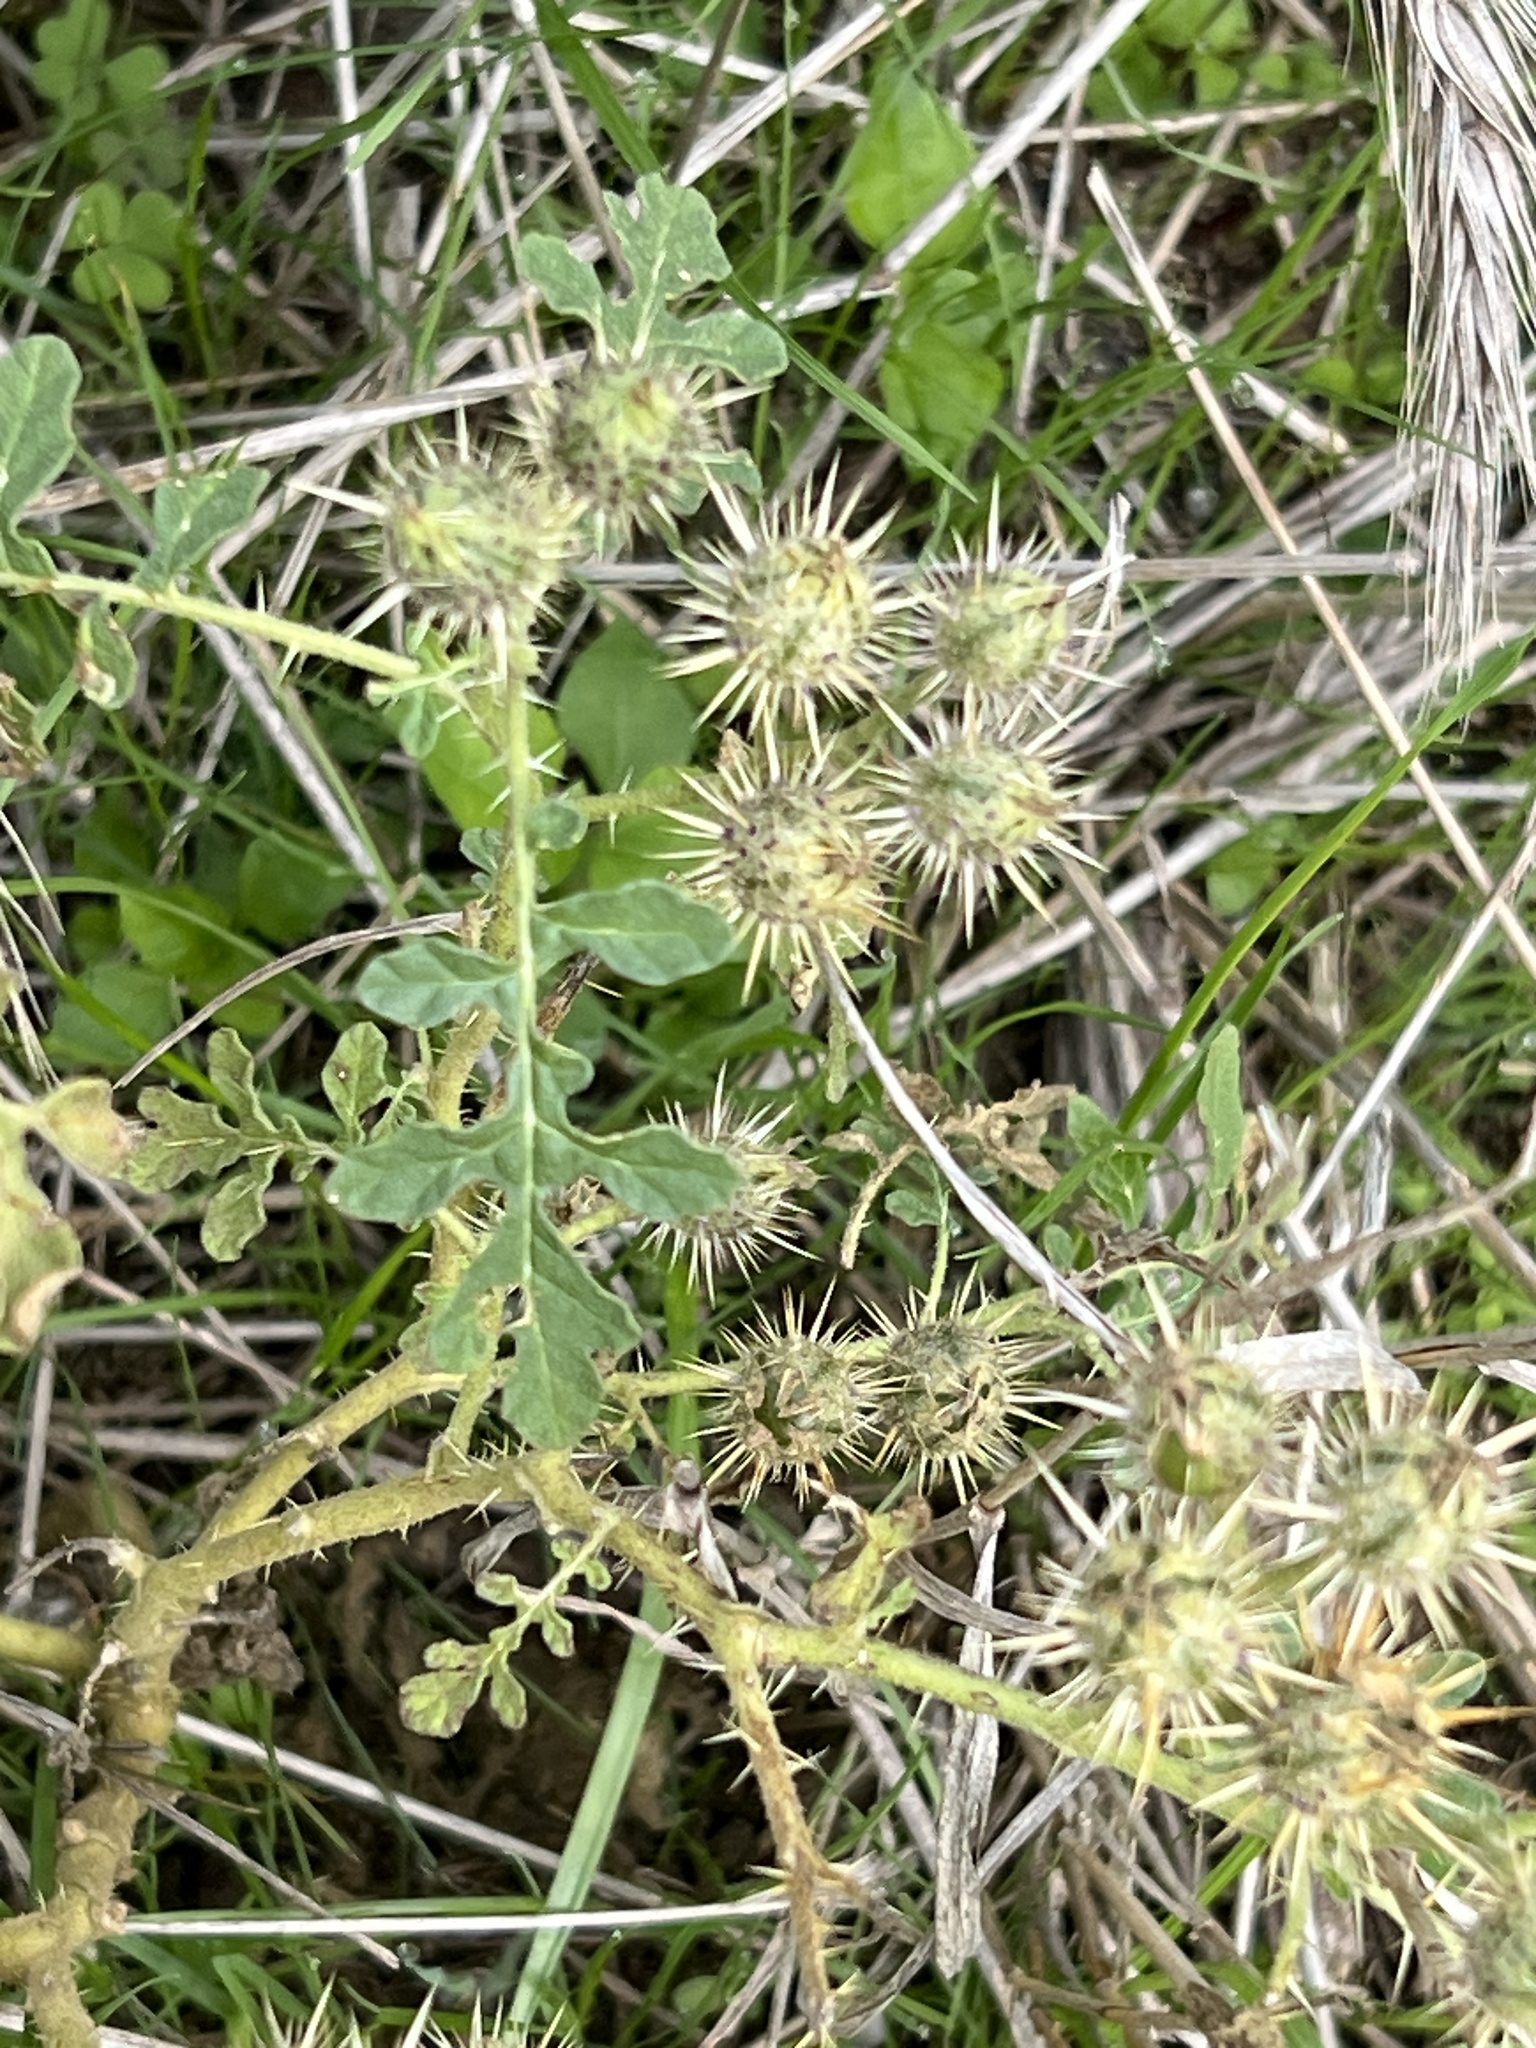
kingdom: Plantae
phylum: Tracheophyta
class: Magnoliopsida
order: Solanales
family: Solanaceae
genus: Solanum
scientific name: Solanum angustifolium
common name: Buffalobur nightshade
